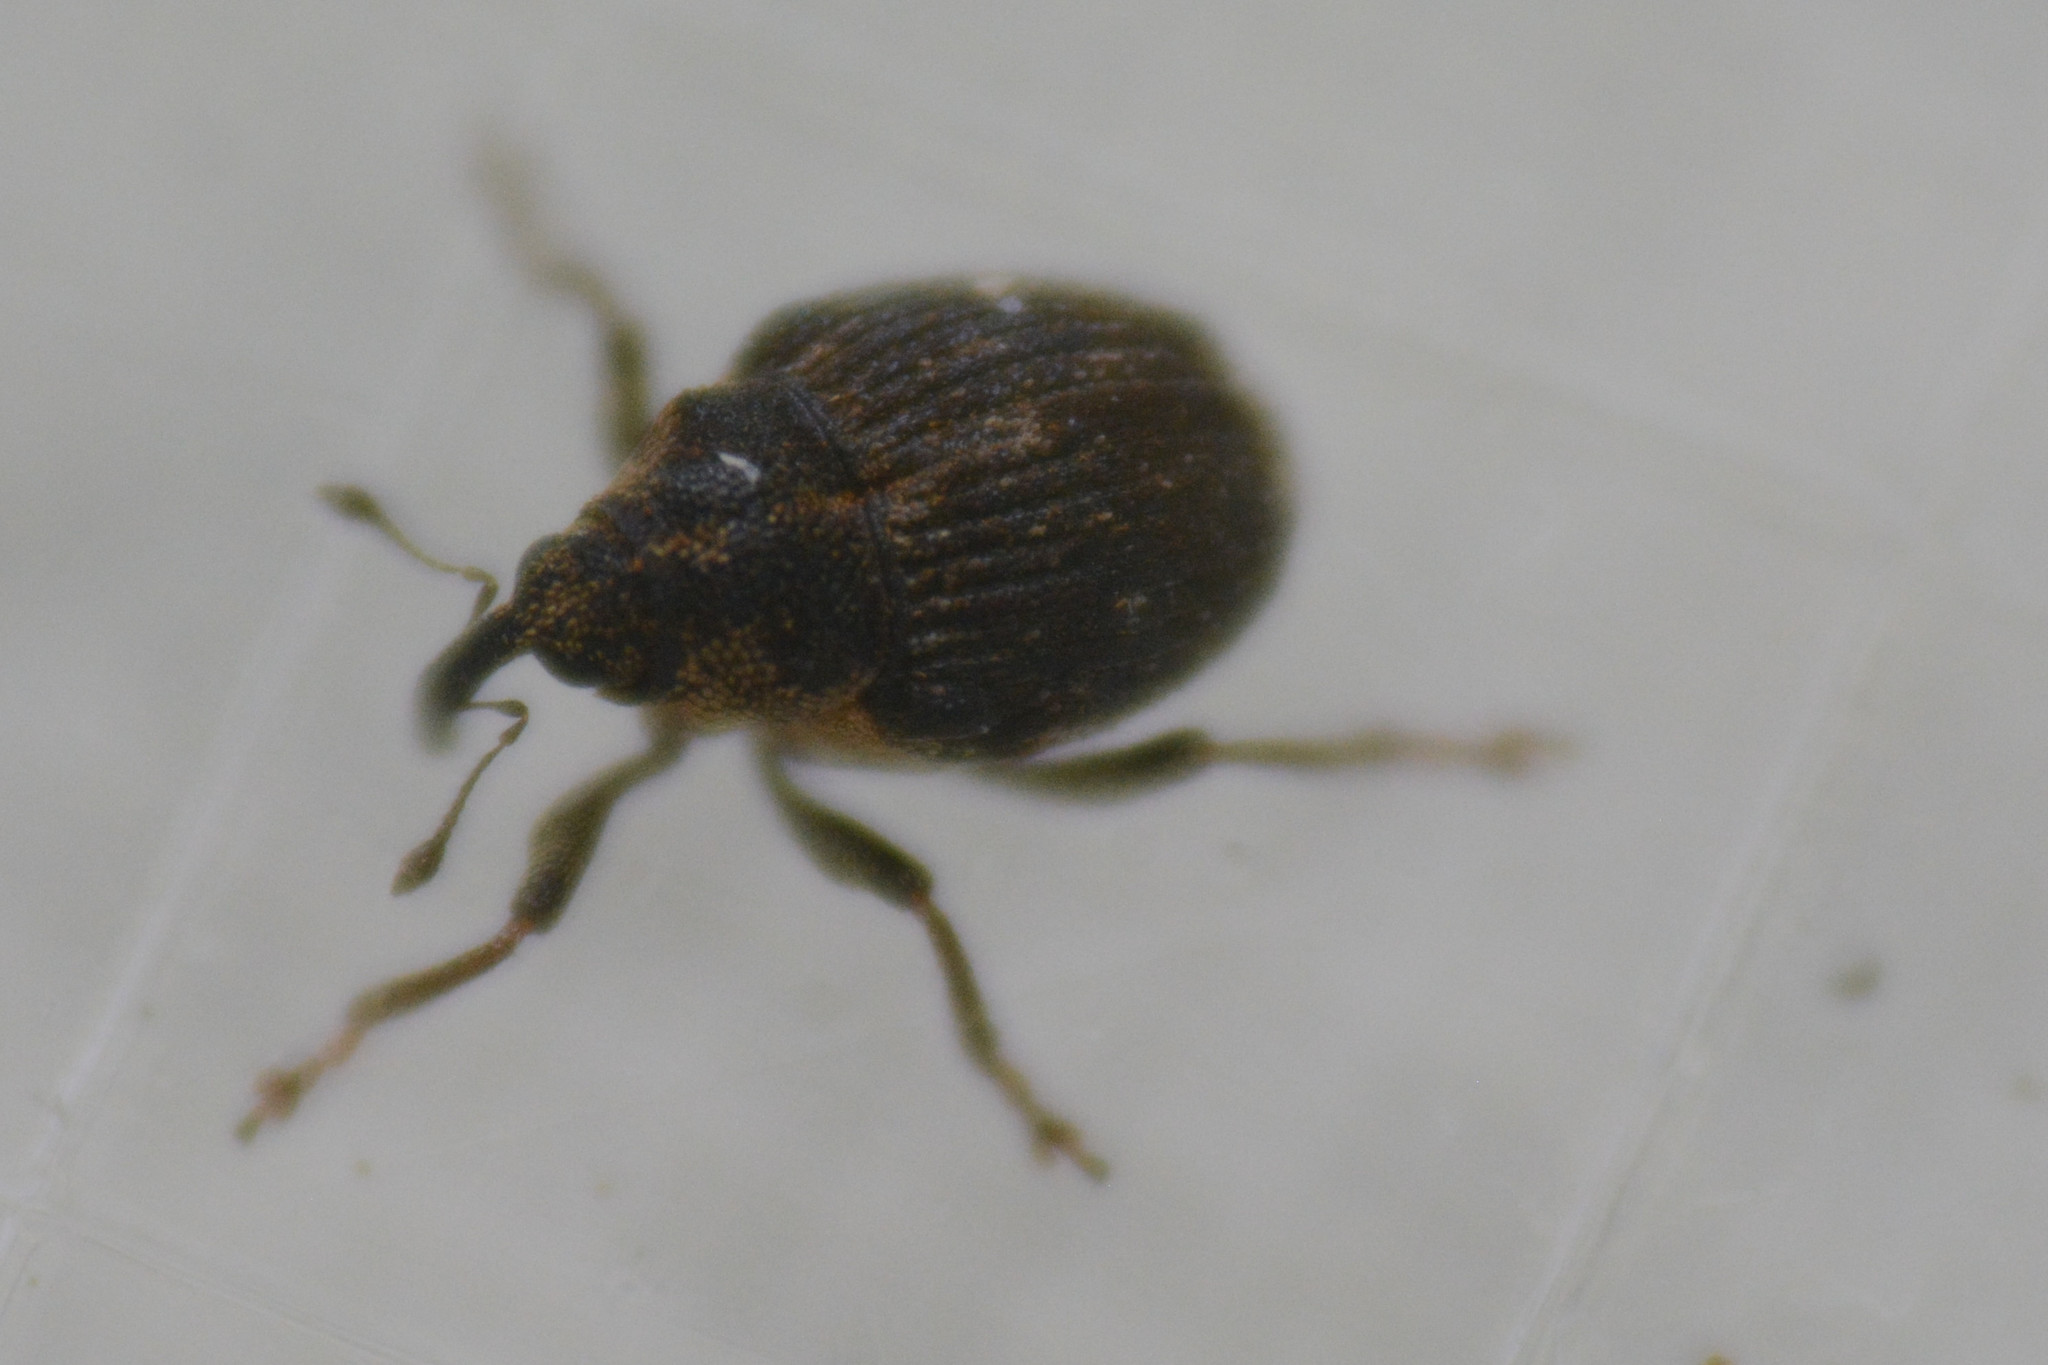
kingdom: Animalia
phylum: Arthropoda
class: Insecta
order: Coleoptera
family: Curculionidae
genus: Nedyus
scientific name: Nedyus quadrimaculatus
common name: Small nettle weevil
